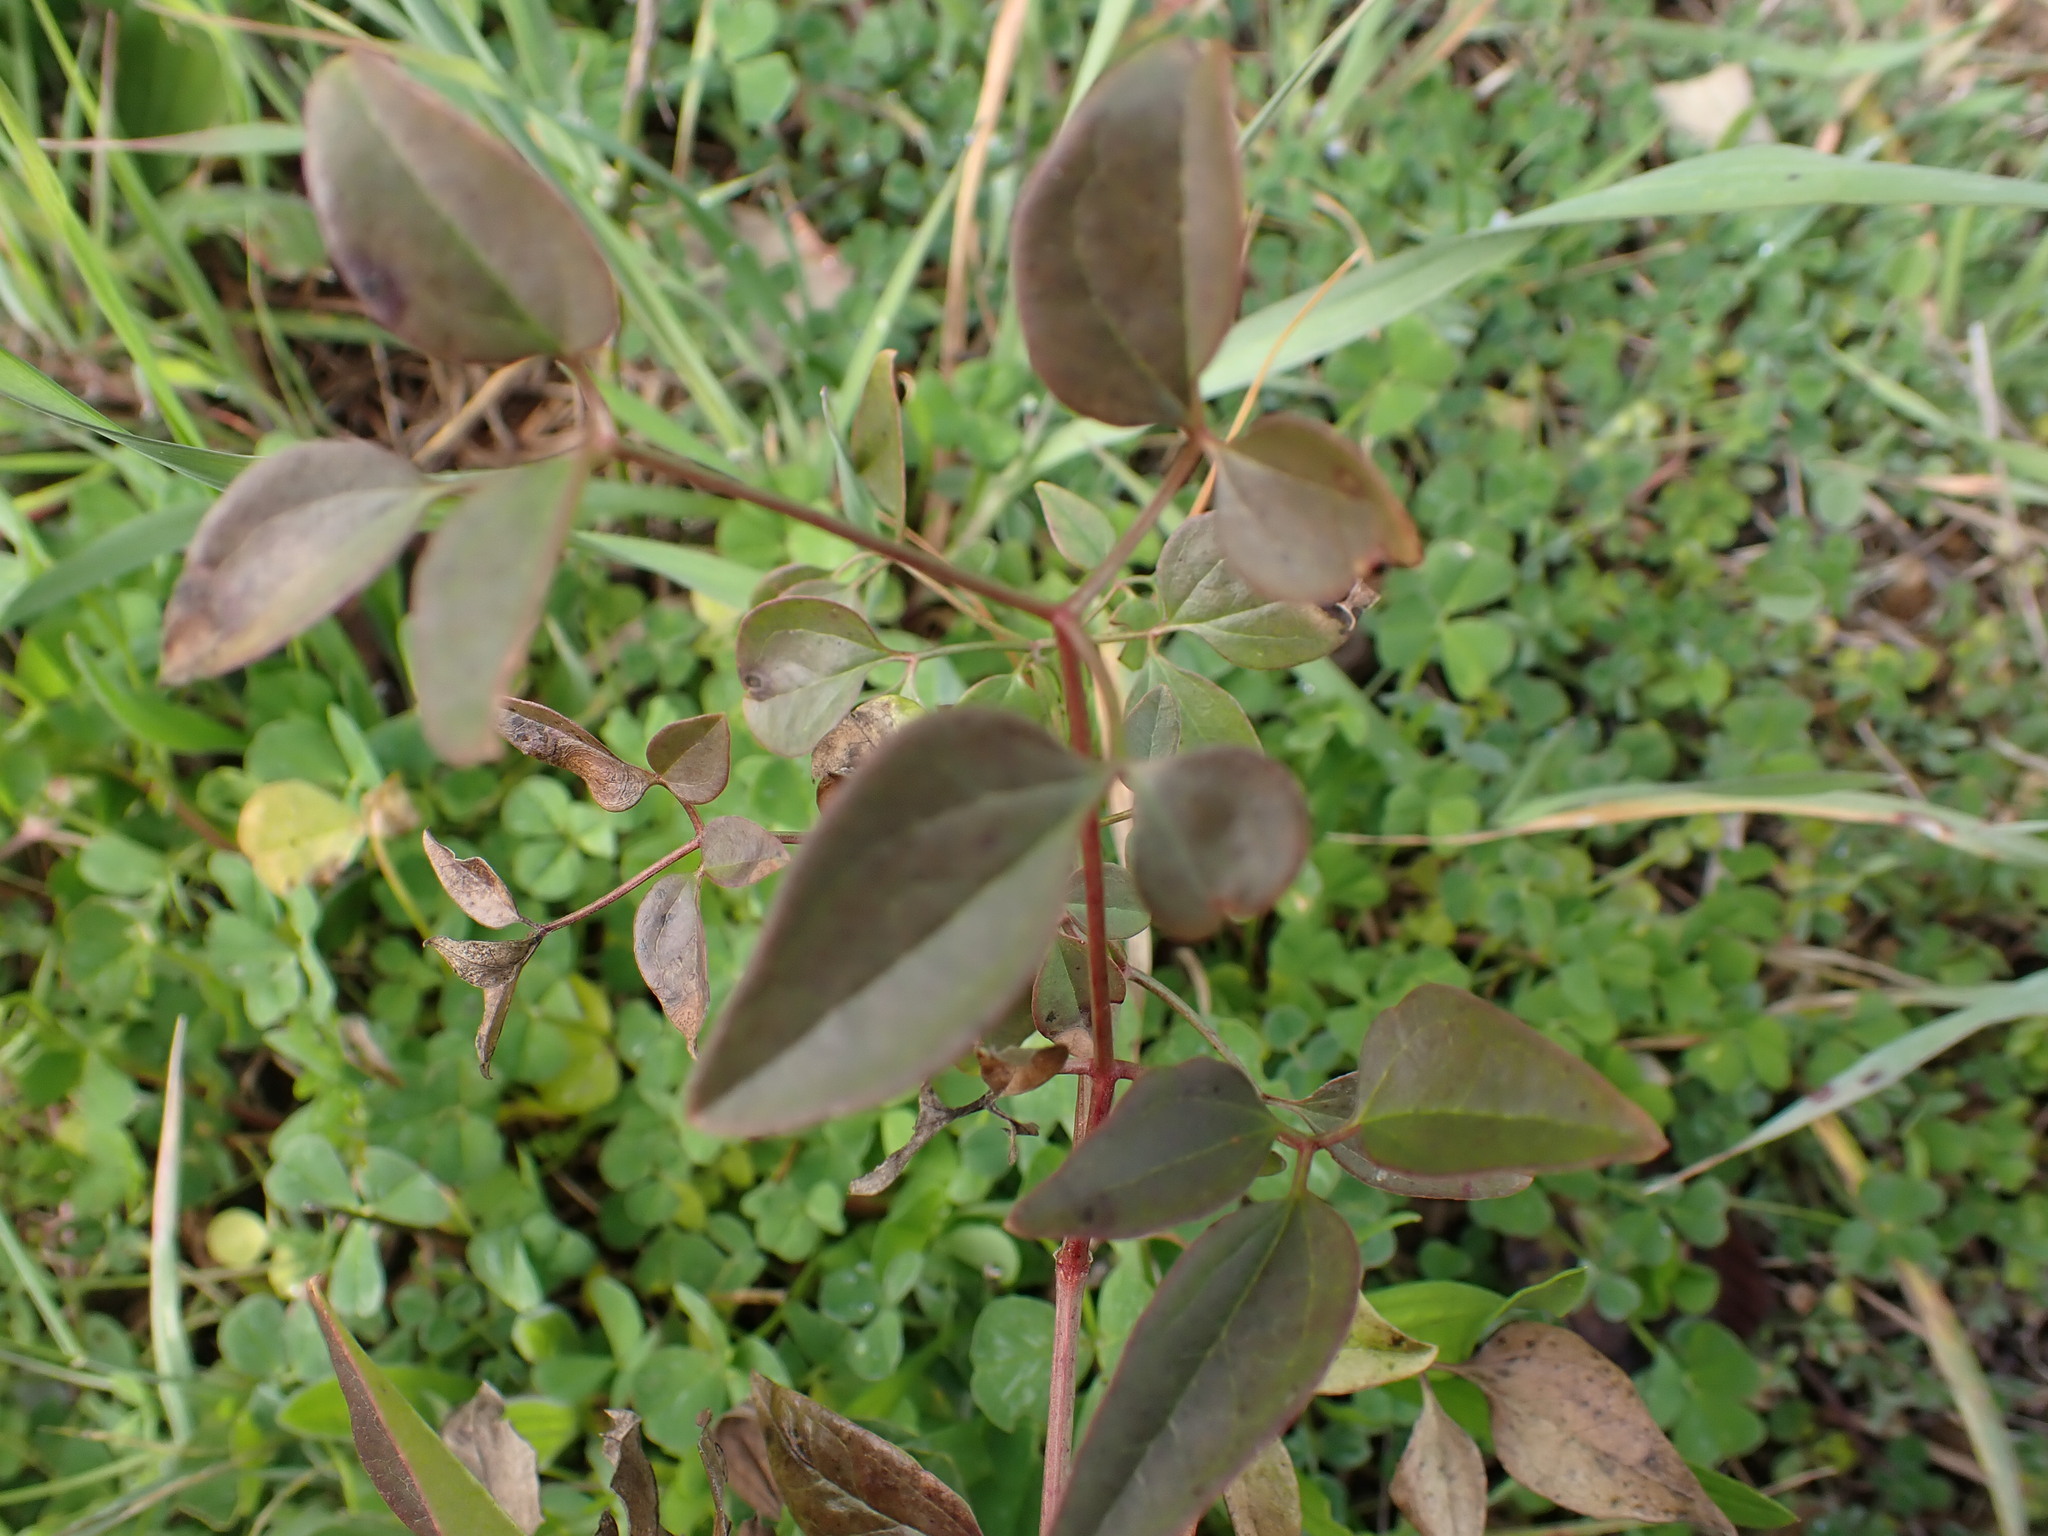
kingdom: Plantae
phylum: Tracheophyta
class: Magnoliopsida
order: Ranunculales
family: Ranunculaceae
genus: Clematis
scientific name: Clematis flammula
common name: Virgin's-bower
